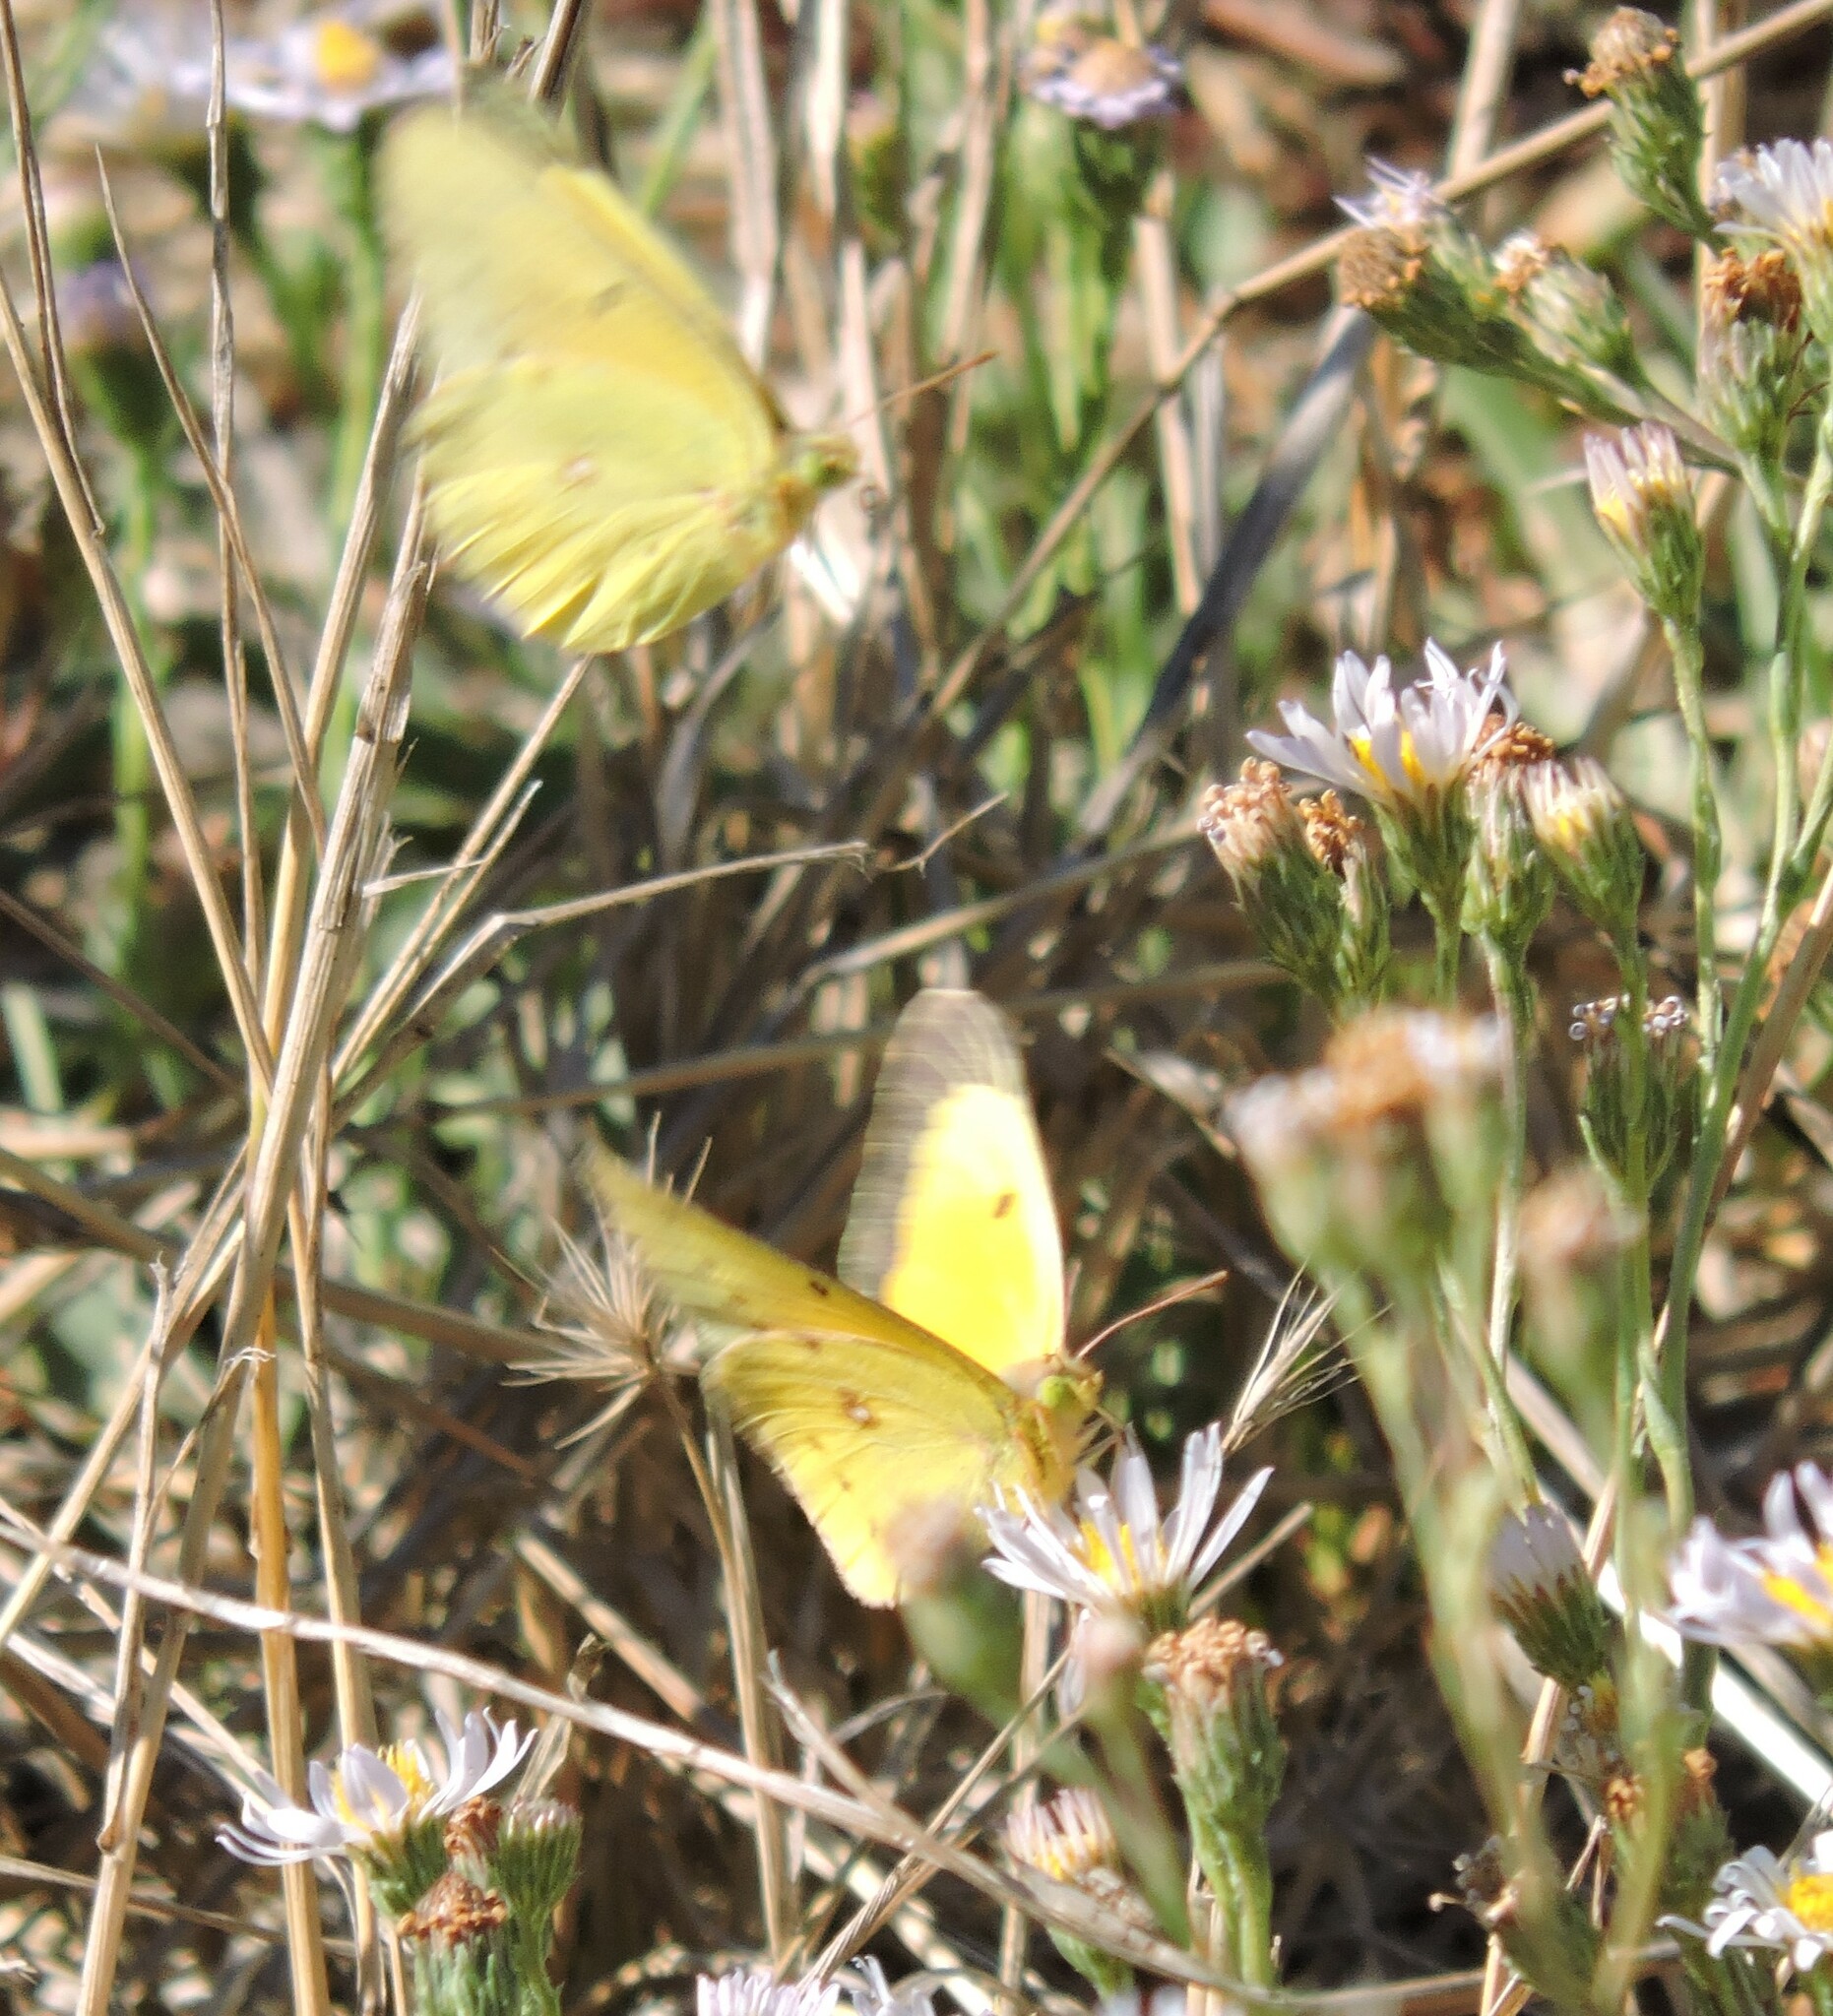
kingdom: Animalia
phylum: Arthropoda
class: Insecta
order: Lepidoptera
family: Pieridae
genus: Colias
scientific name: Colias eurytheme
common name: Alfalfa butterfly
